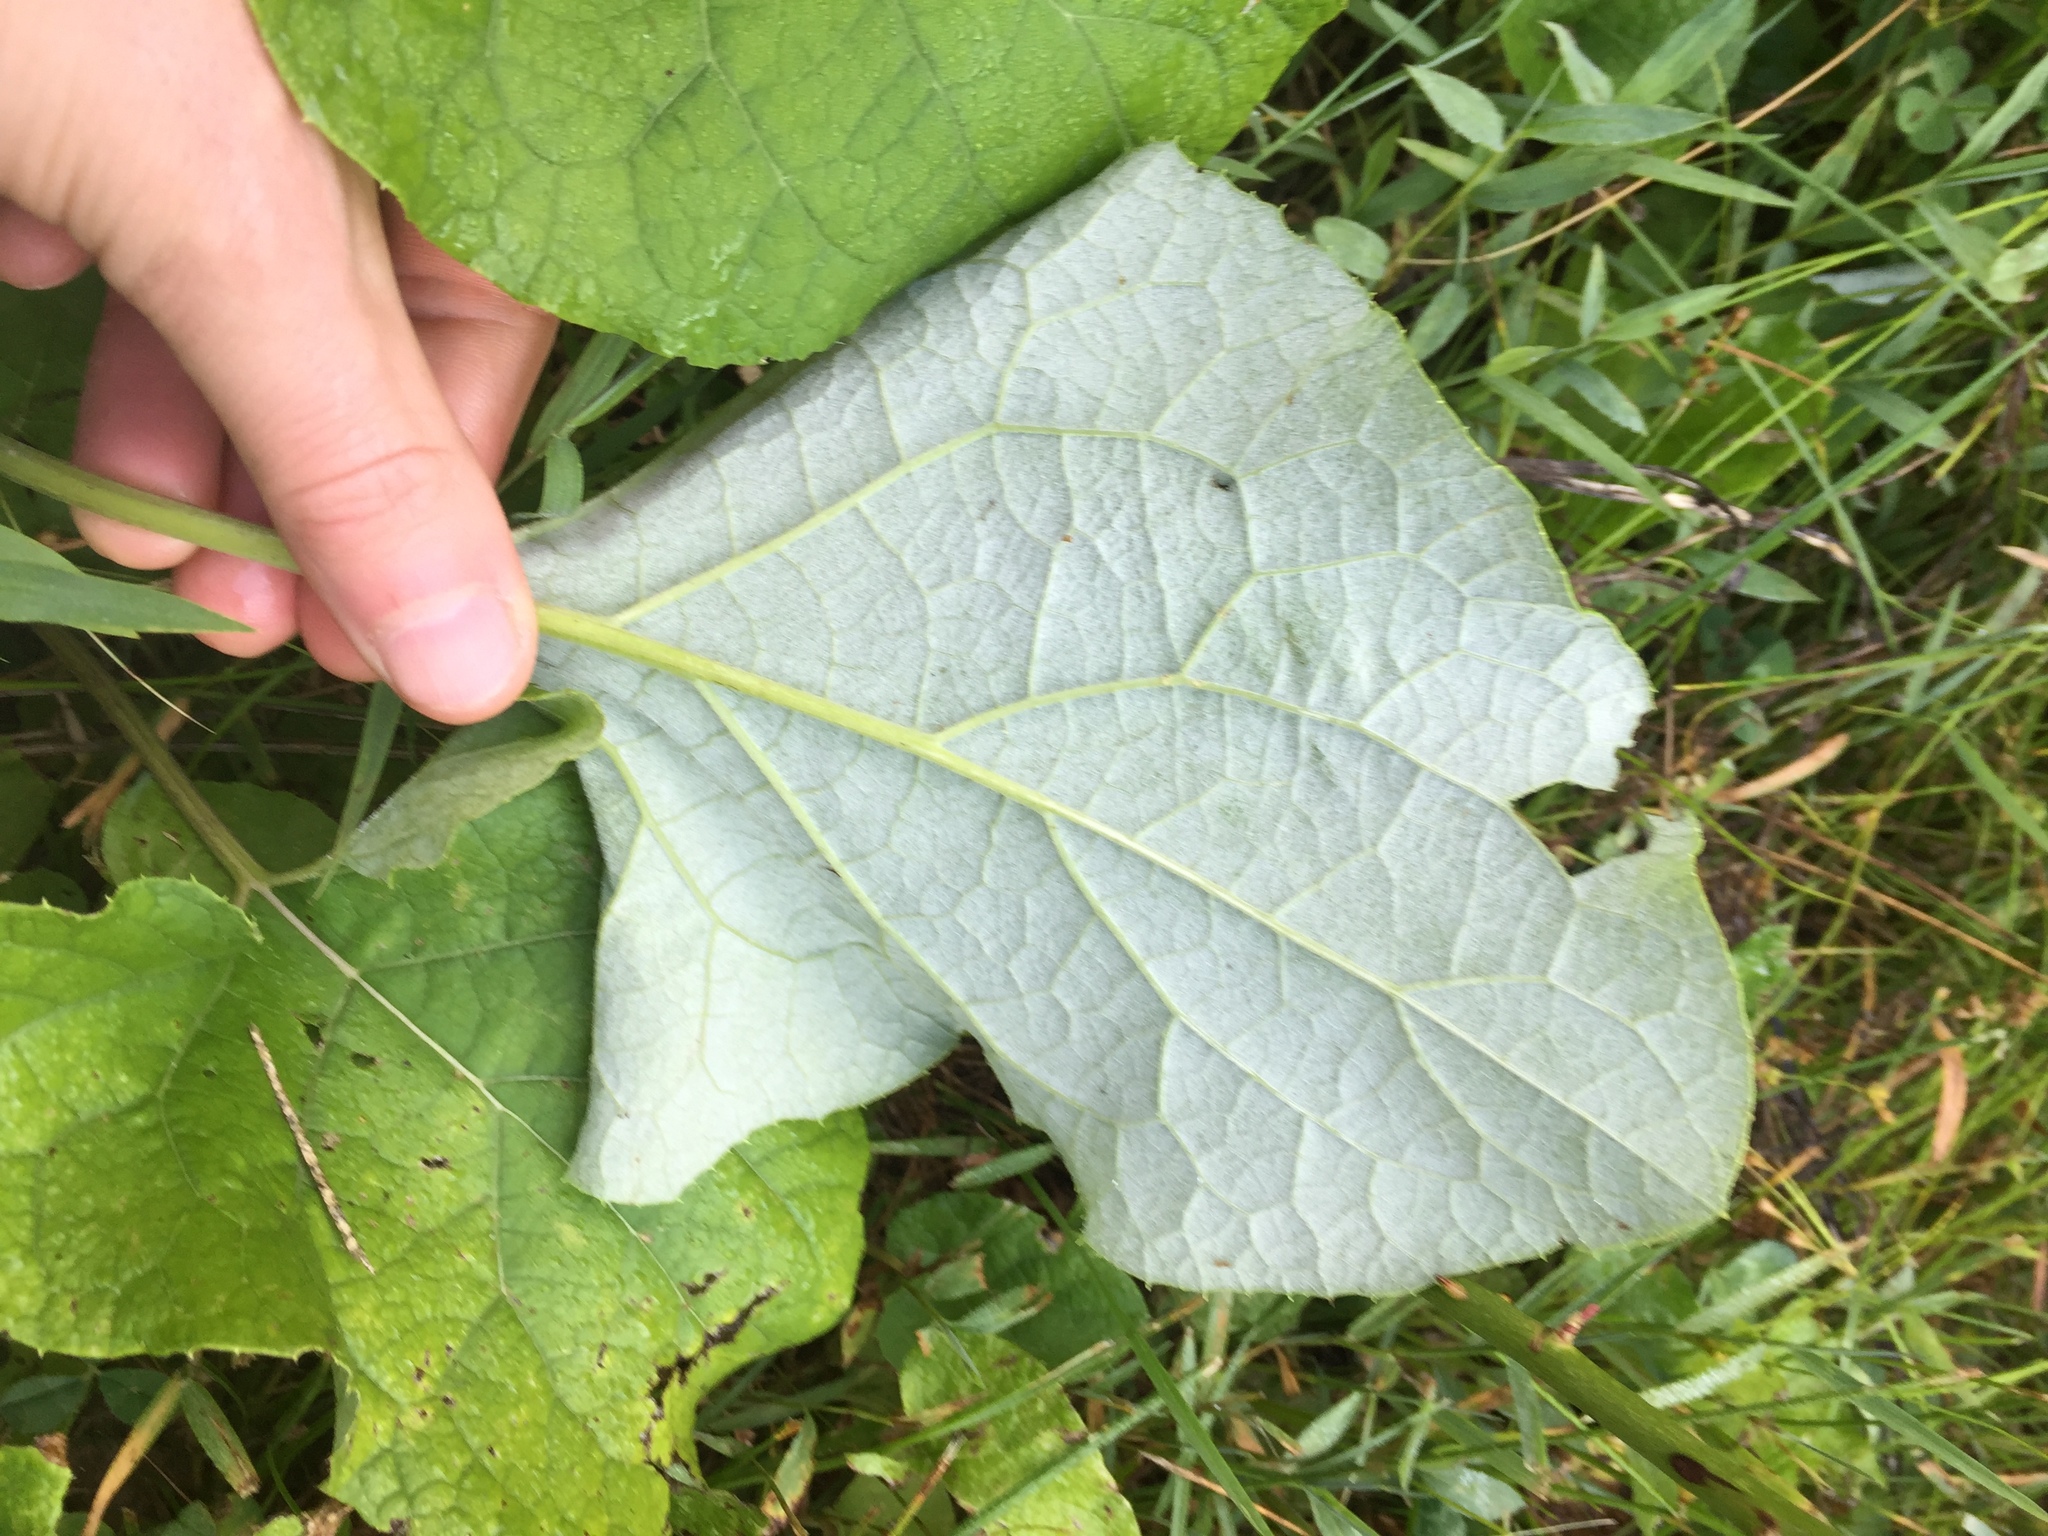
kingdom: Plantae
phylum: Tracheophyta
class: Magnoliopsida
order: Asterales
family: Asteraceae
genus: Arctium
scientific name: Arctium
